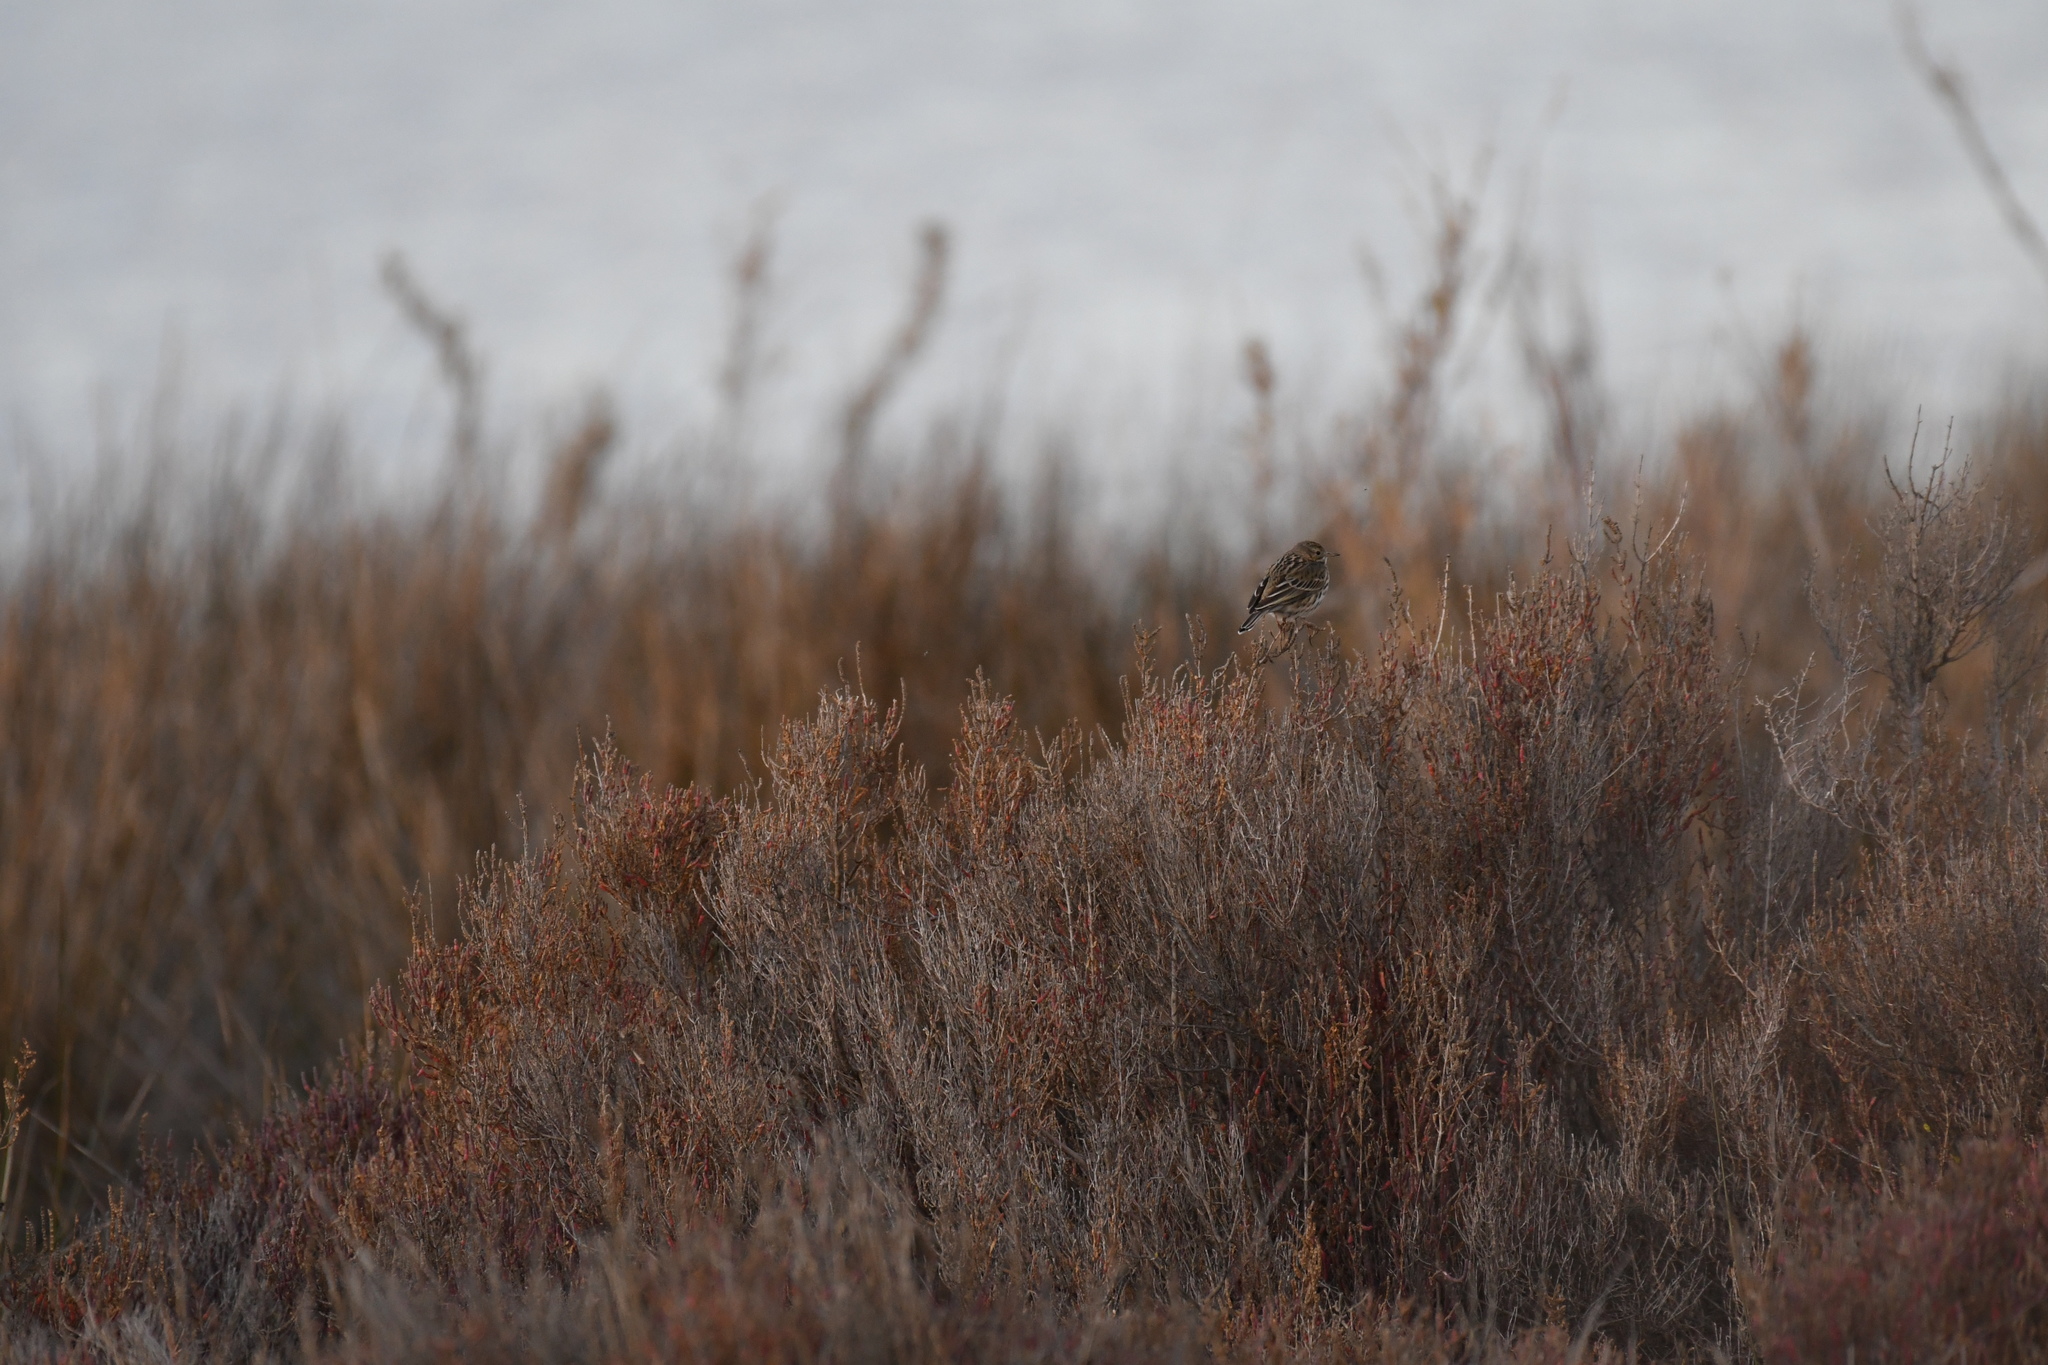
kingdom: Animalia
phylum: Chordata
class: Aves
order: Passeriformes
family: Motacillidae
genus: Anthus
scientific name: Anthus pratensis
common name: Meadow pipit
